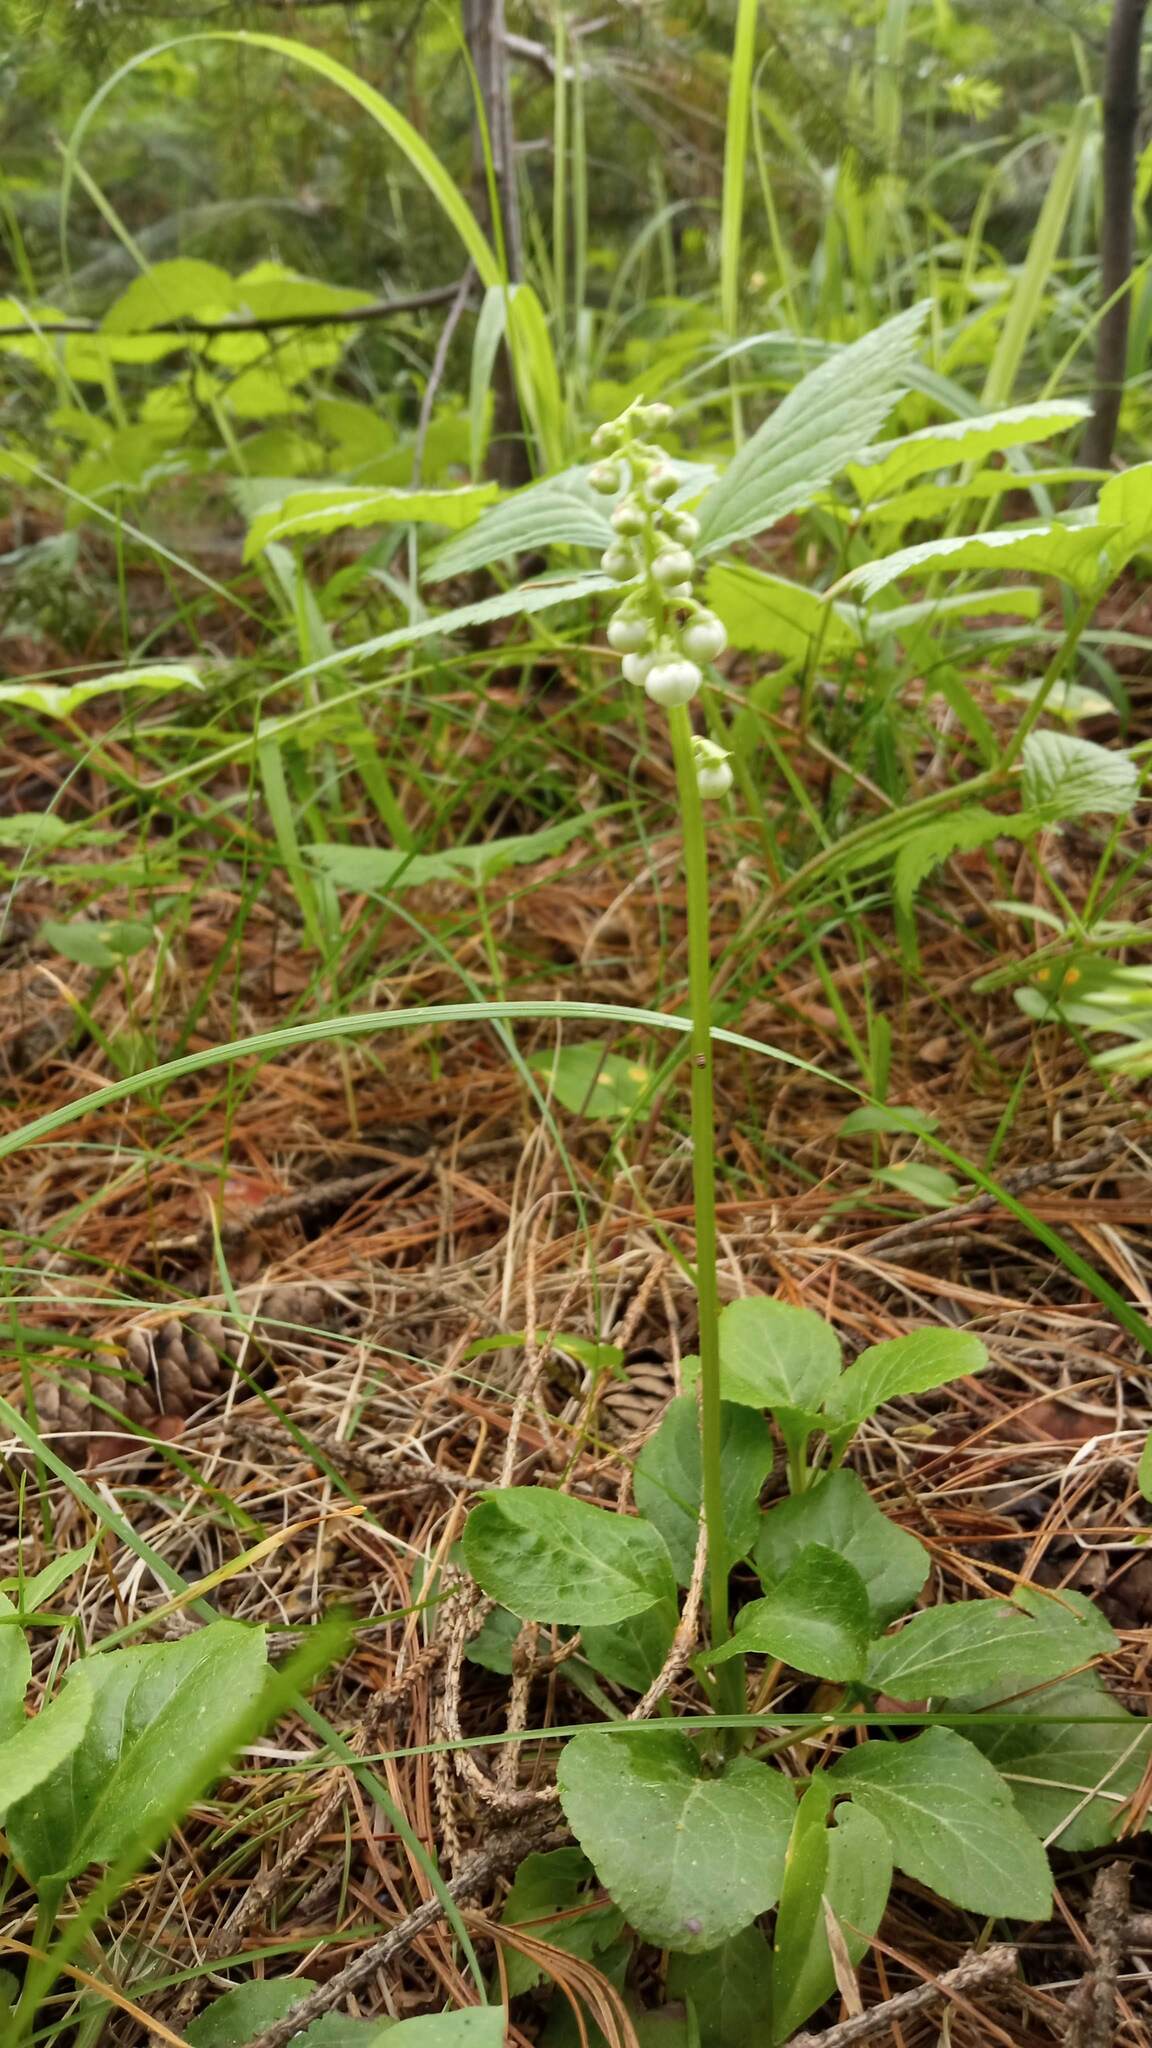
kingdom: Plantae
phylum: Tracheophyta
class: Magnoliopsida
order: Ericales
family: Ericaceae
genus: Pyrola
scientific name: Pyrola minor
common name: Common wintergreen
